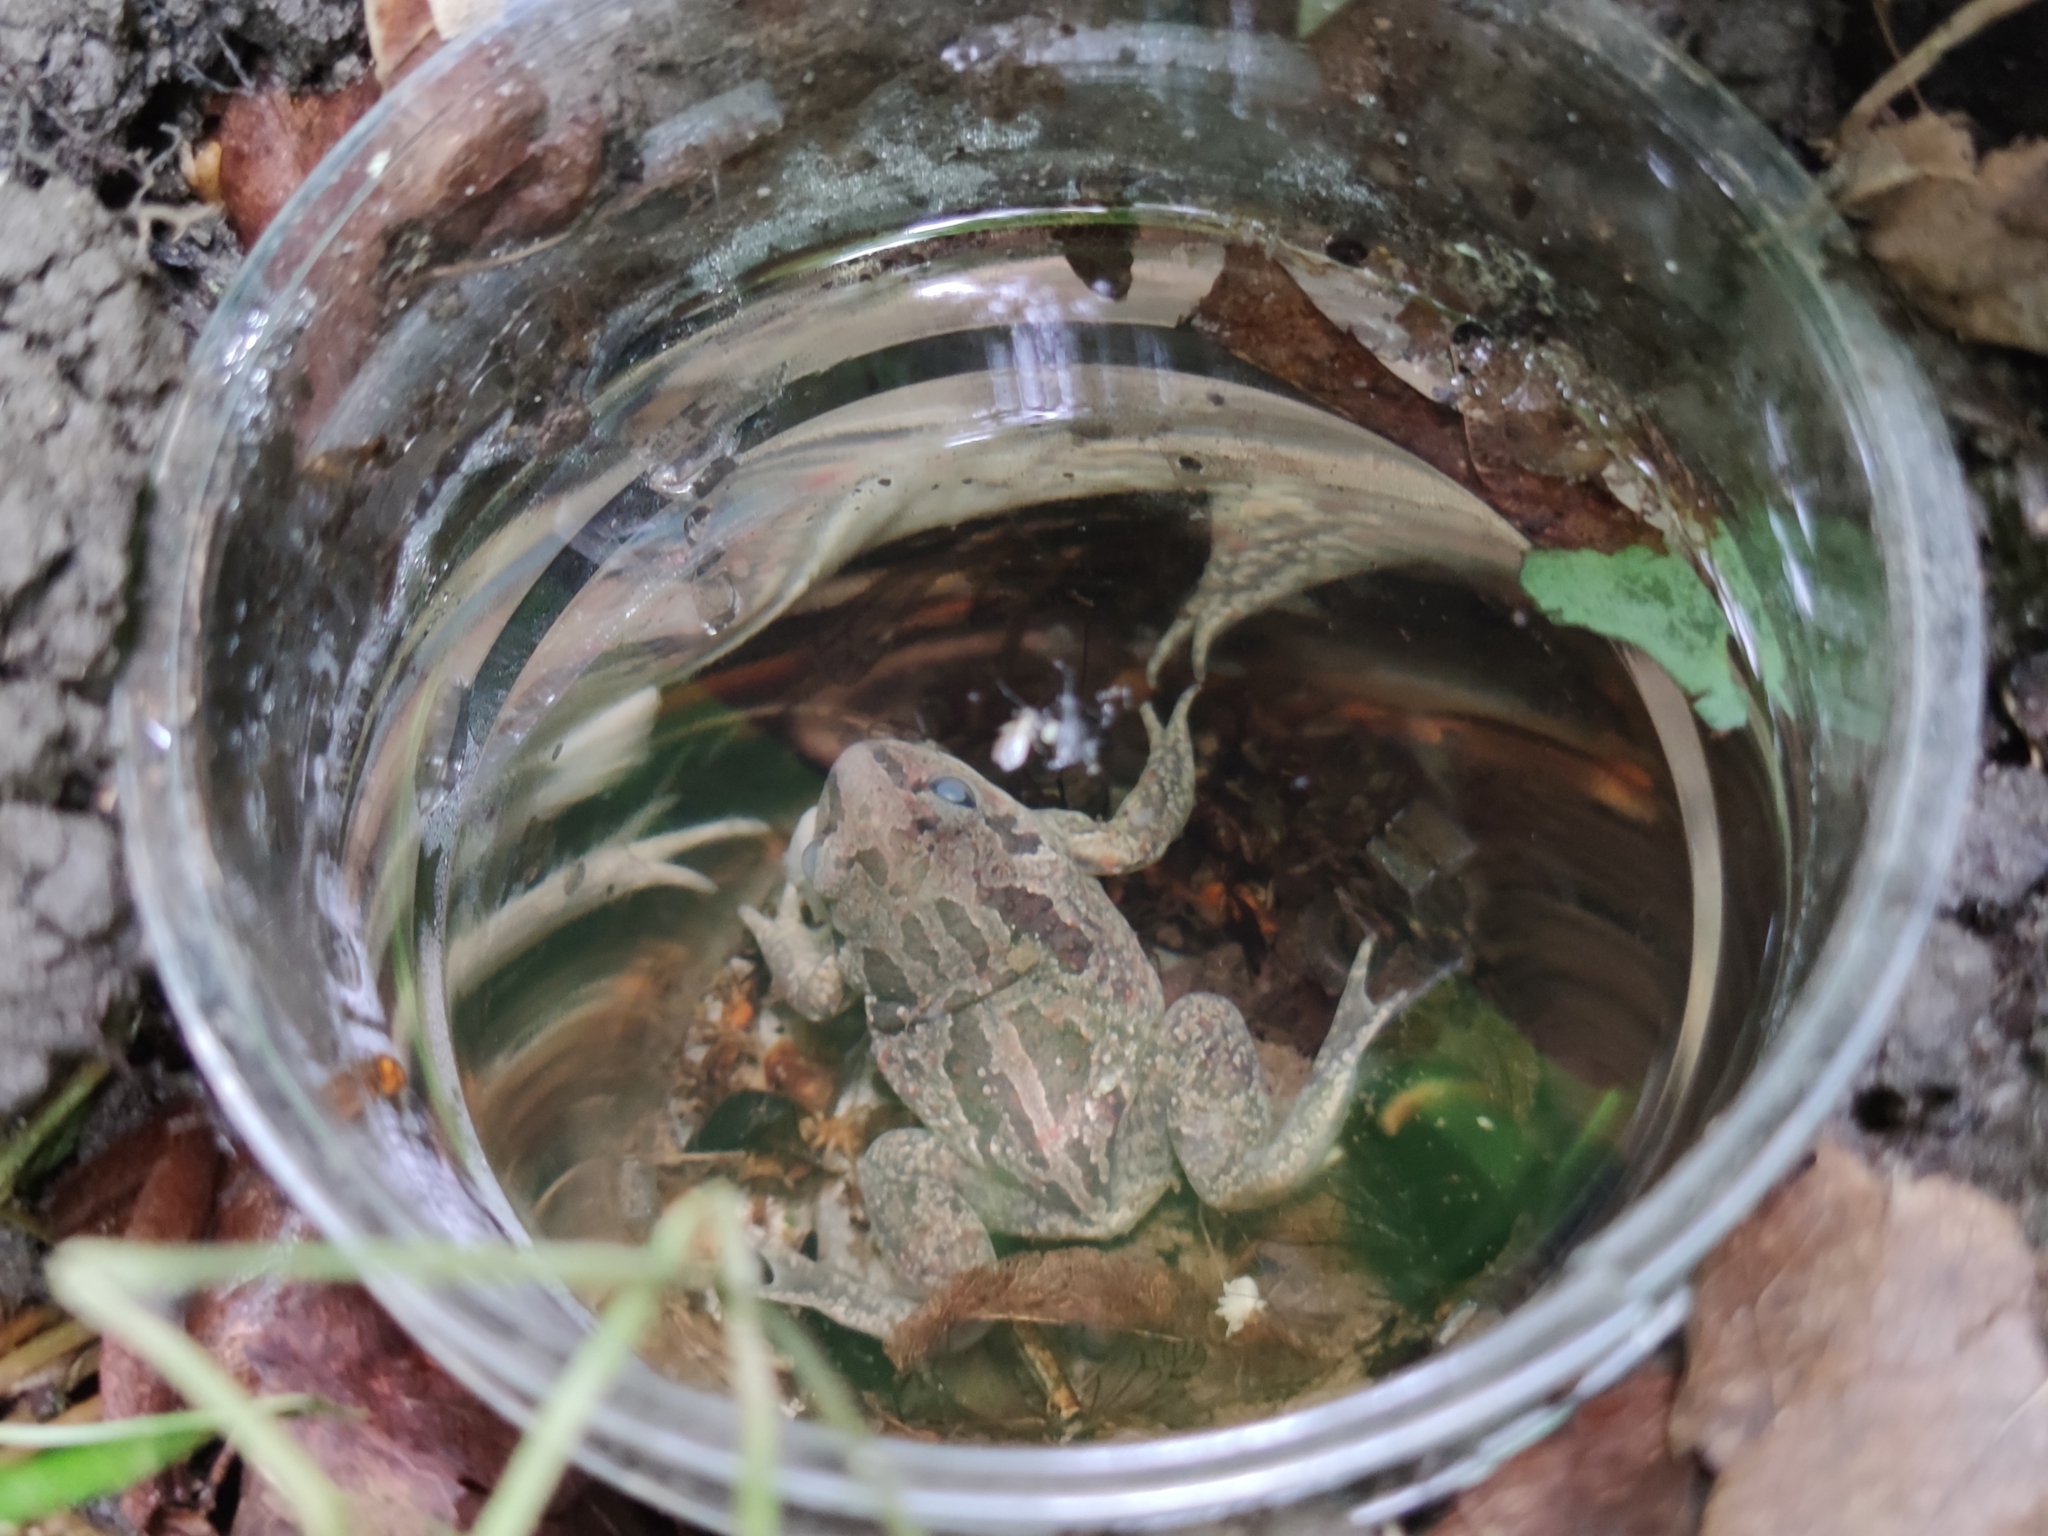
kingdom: Animalia
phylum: Chordata
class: Amphibia
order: Anura
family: Pelobatidae
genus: Pelobates
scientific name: Pelobates fuscus
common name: Common eurasian spadefoot toad
